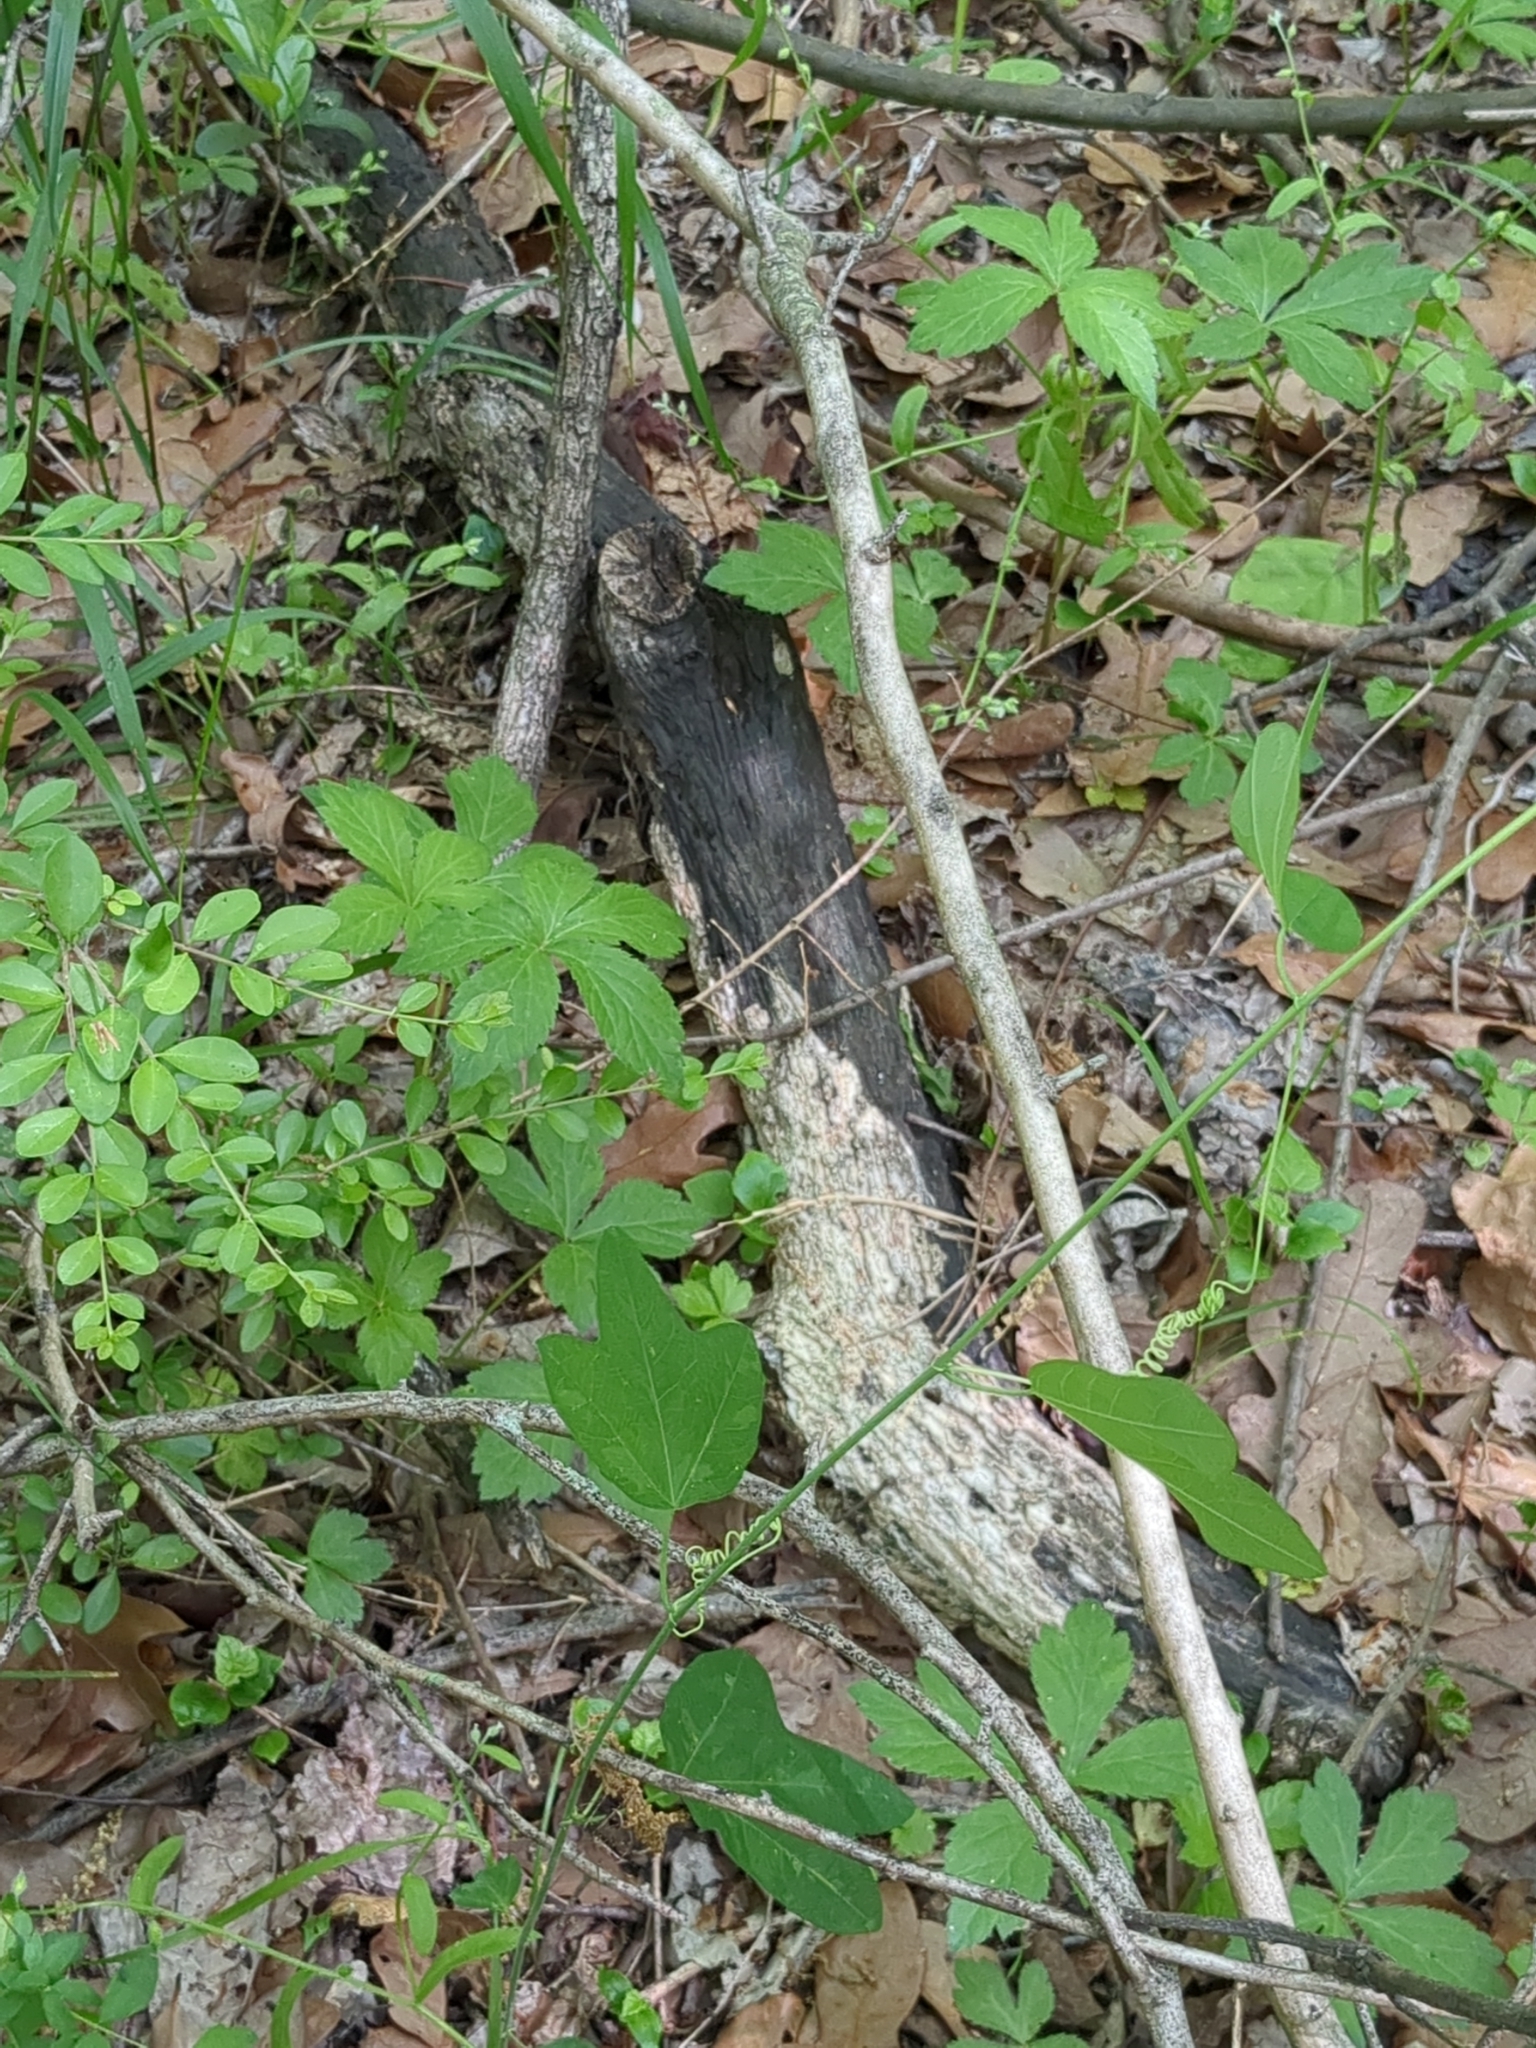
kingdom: Plantae
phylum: Tracheophyta
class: Magnoliopsida
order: Malpighiales
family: Passifloraceae
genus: Passiflora
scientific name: Passiflora lutea
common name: Yellow passionflower
